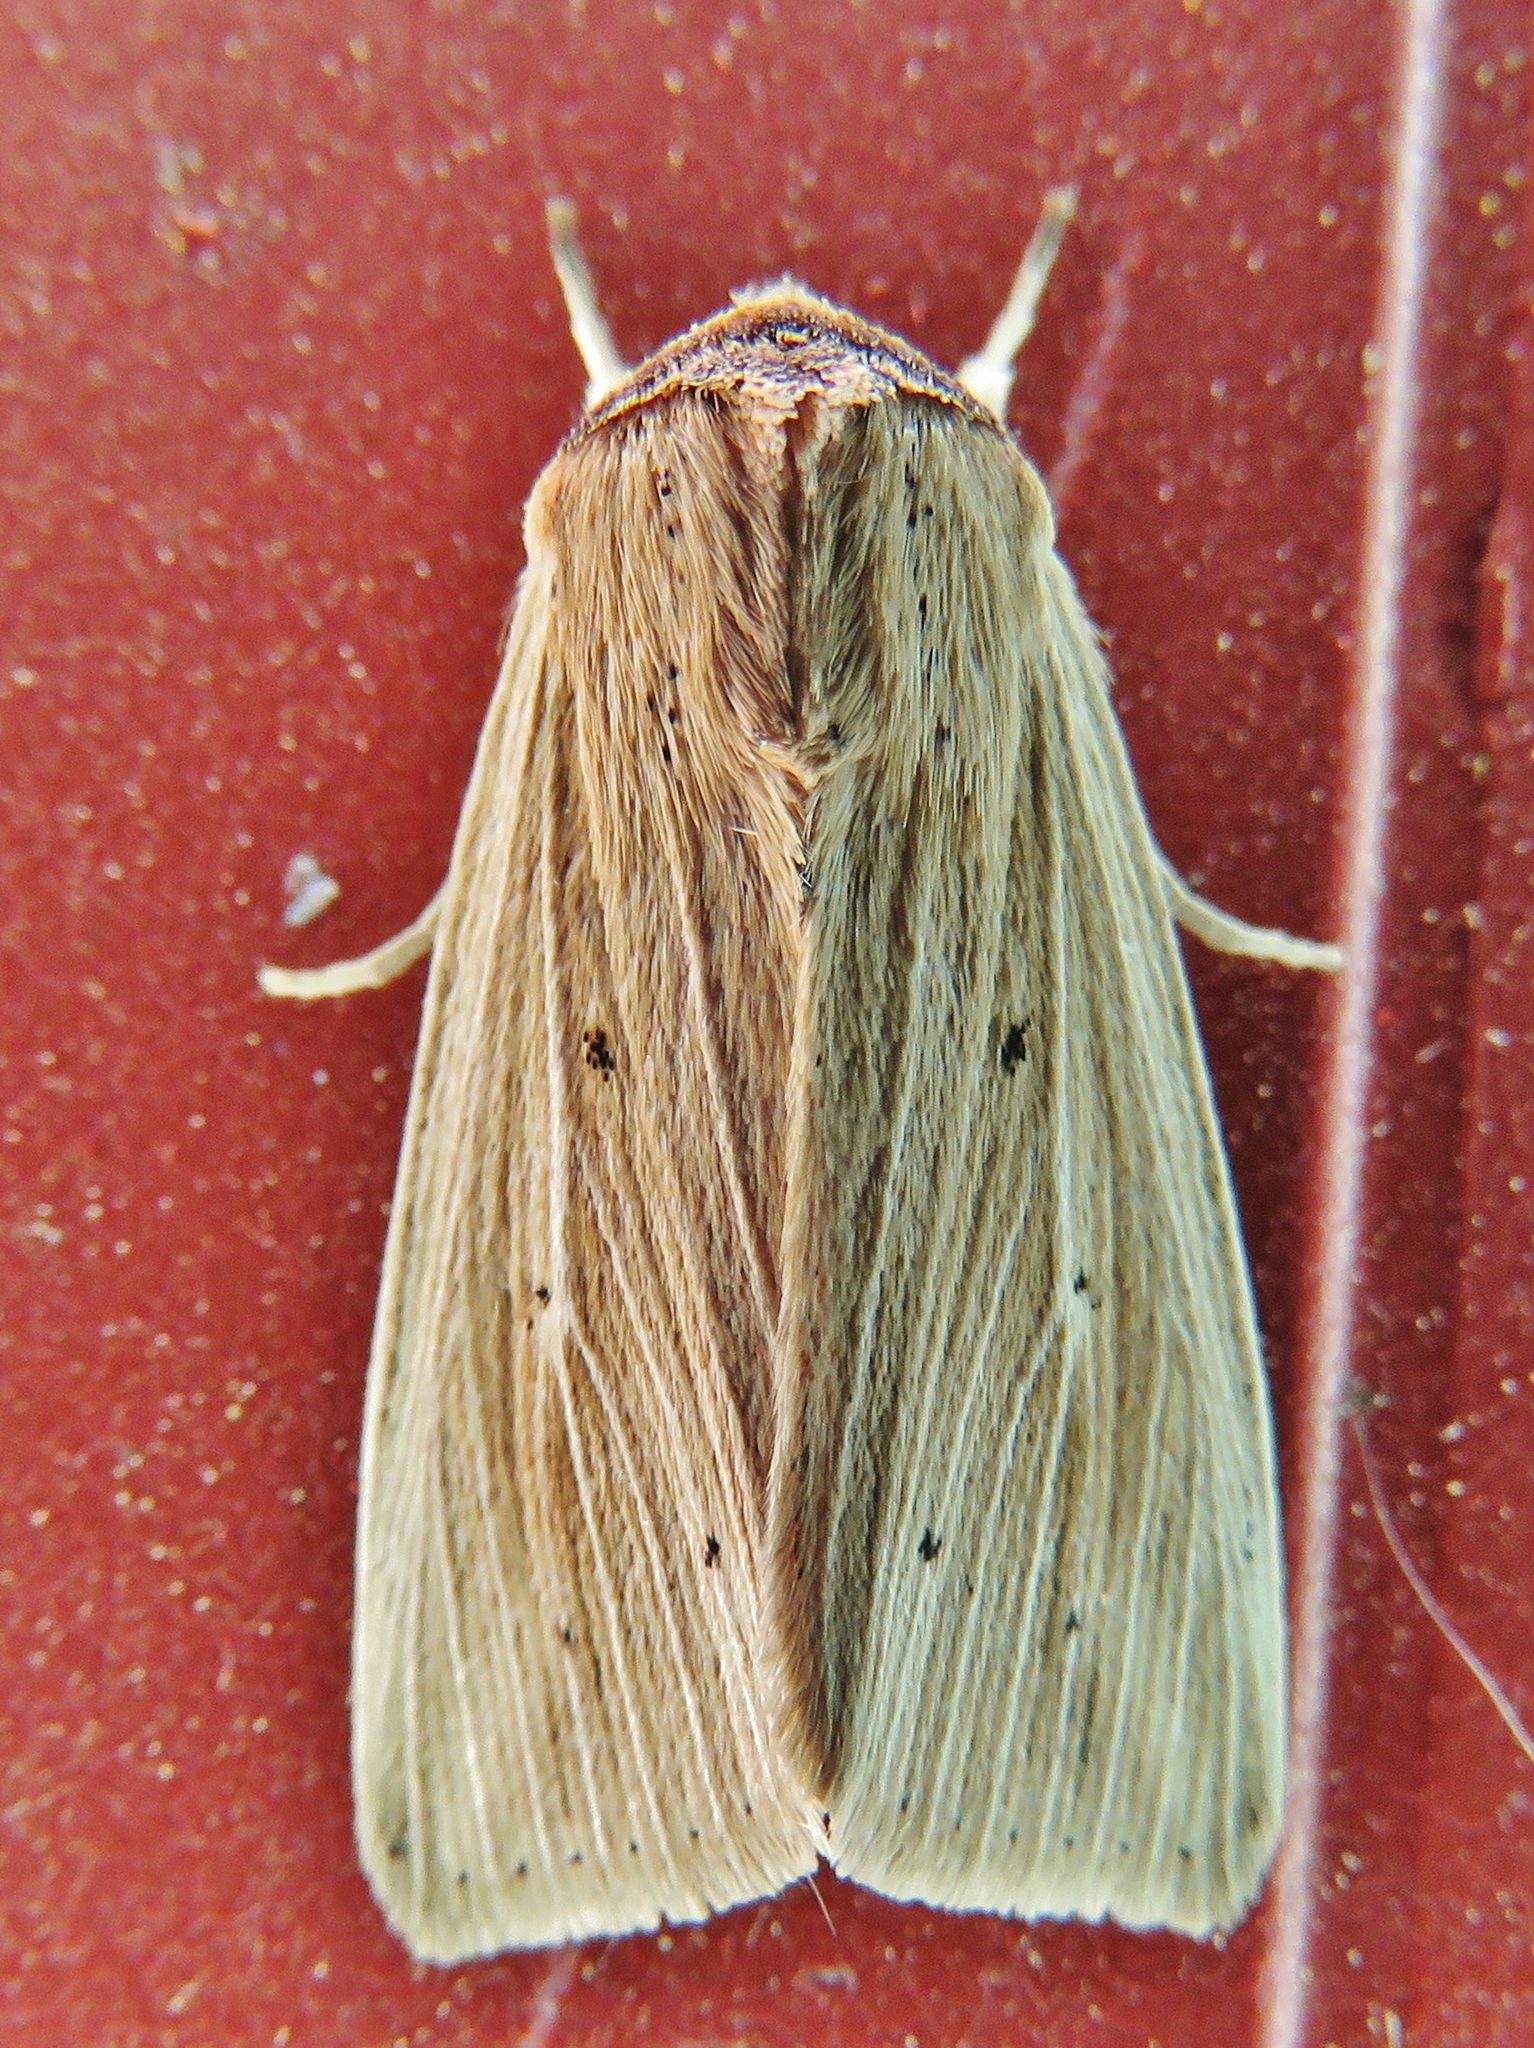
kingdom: Animalia
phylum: Arthropoda
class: Insecta
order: Lepidoptera
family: Noctuidae
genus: Leucania
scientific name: Leucania adjuta
